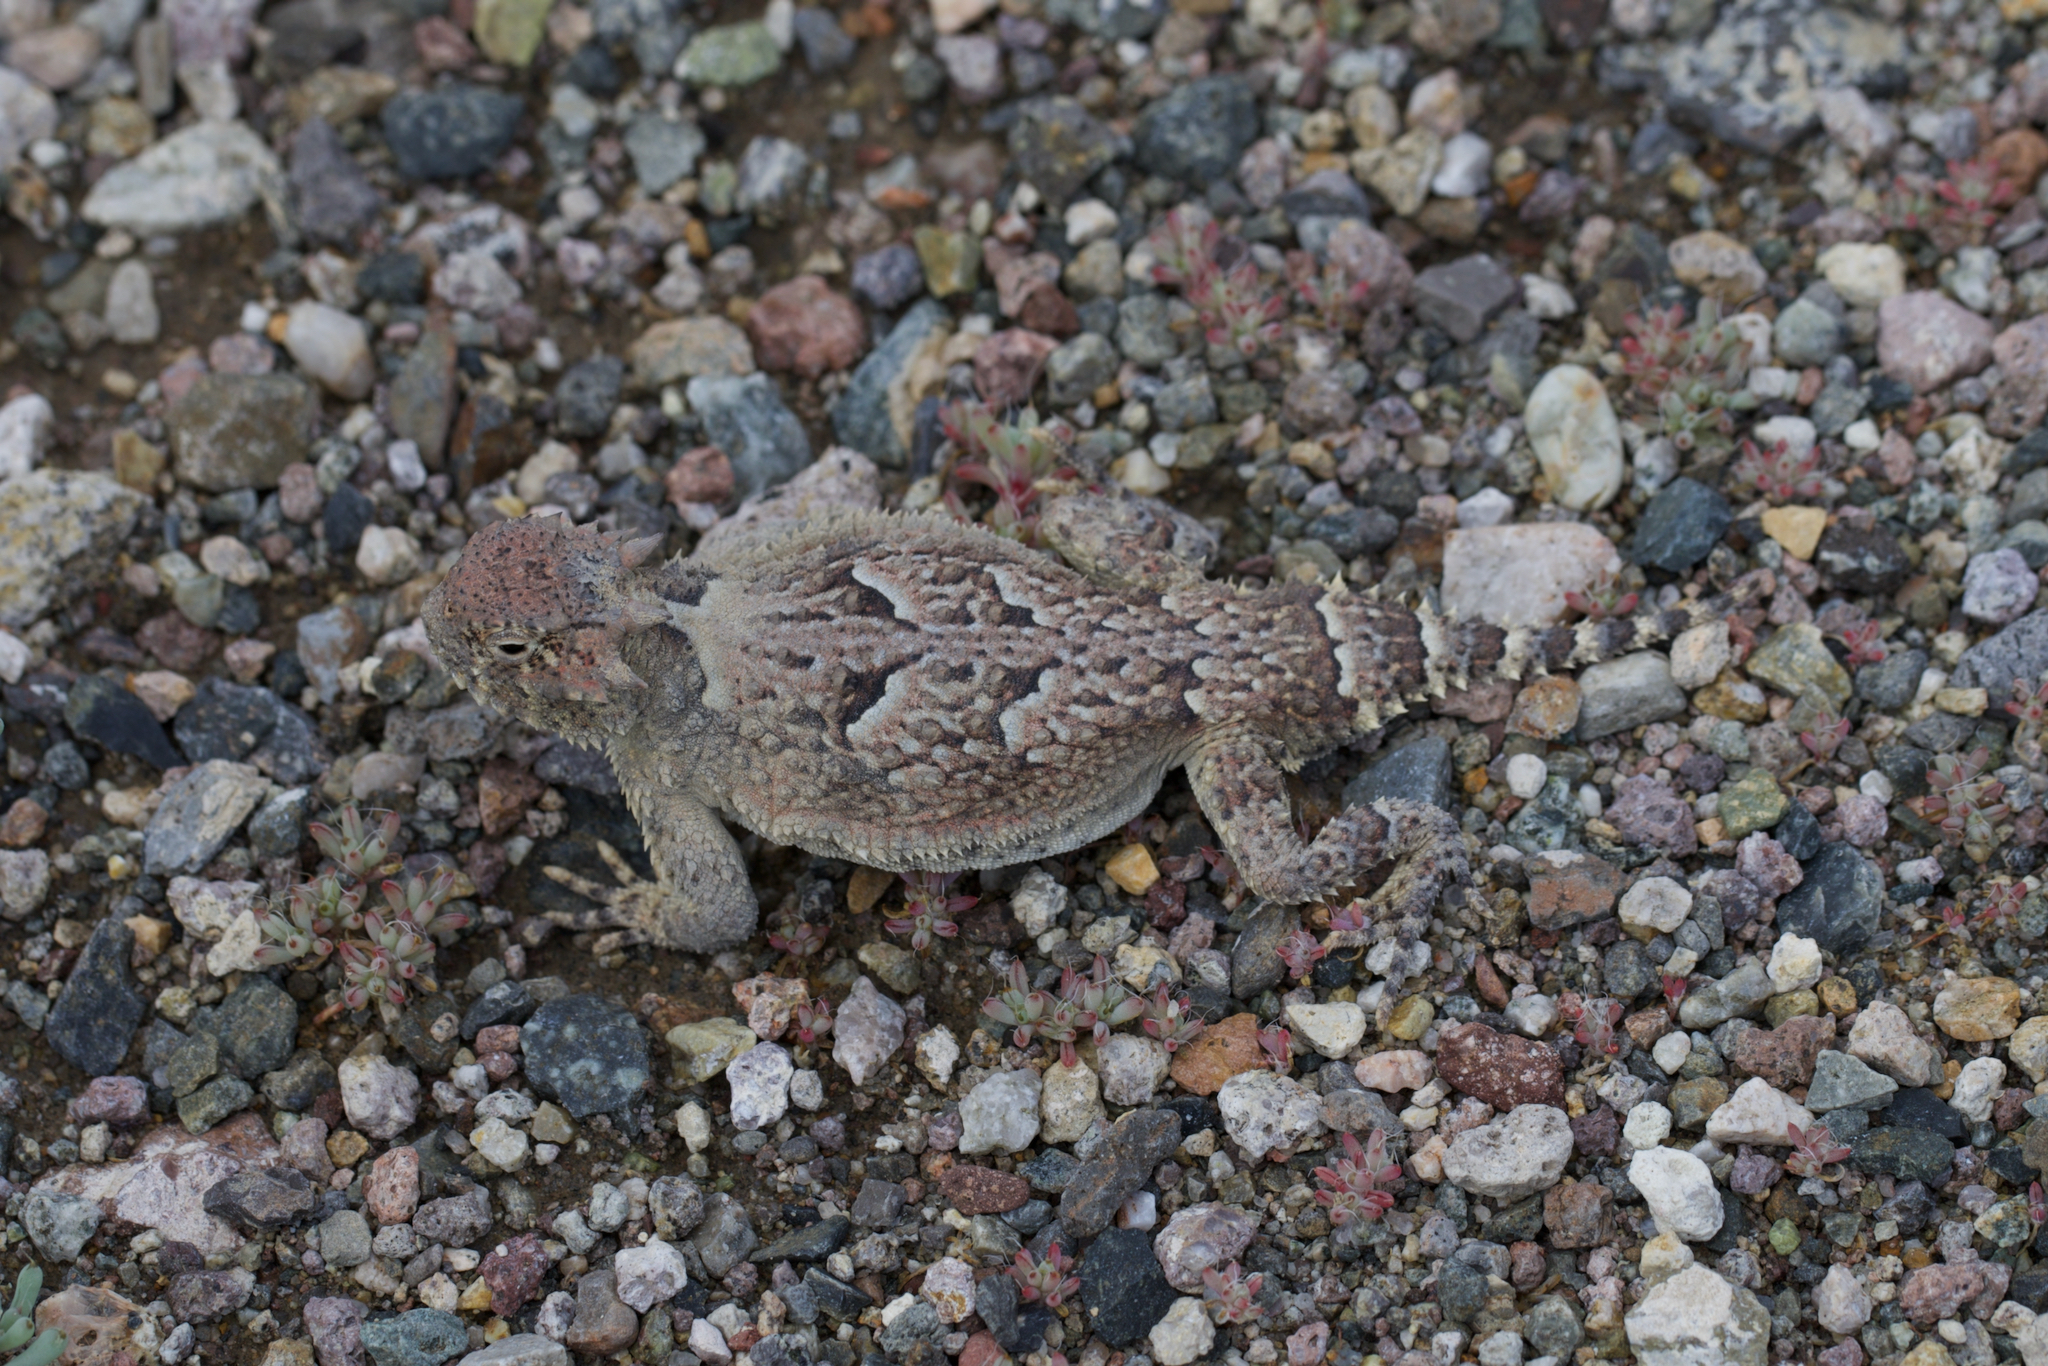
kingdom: Animalia
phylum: Chordata
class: Squamata
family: Phrynosomatidae
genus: Phrynosoma
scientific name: Phrynosoma platyrhinos
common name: Desert horned lizard
